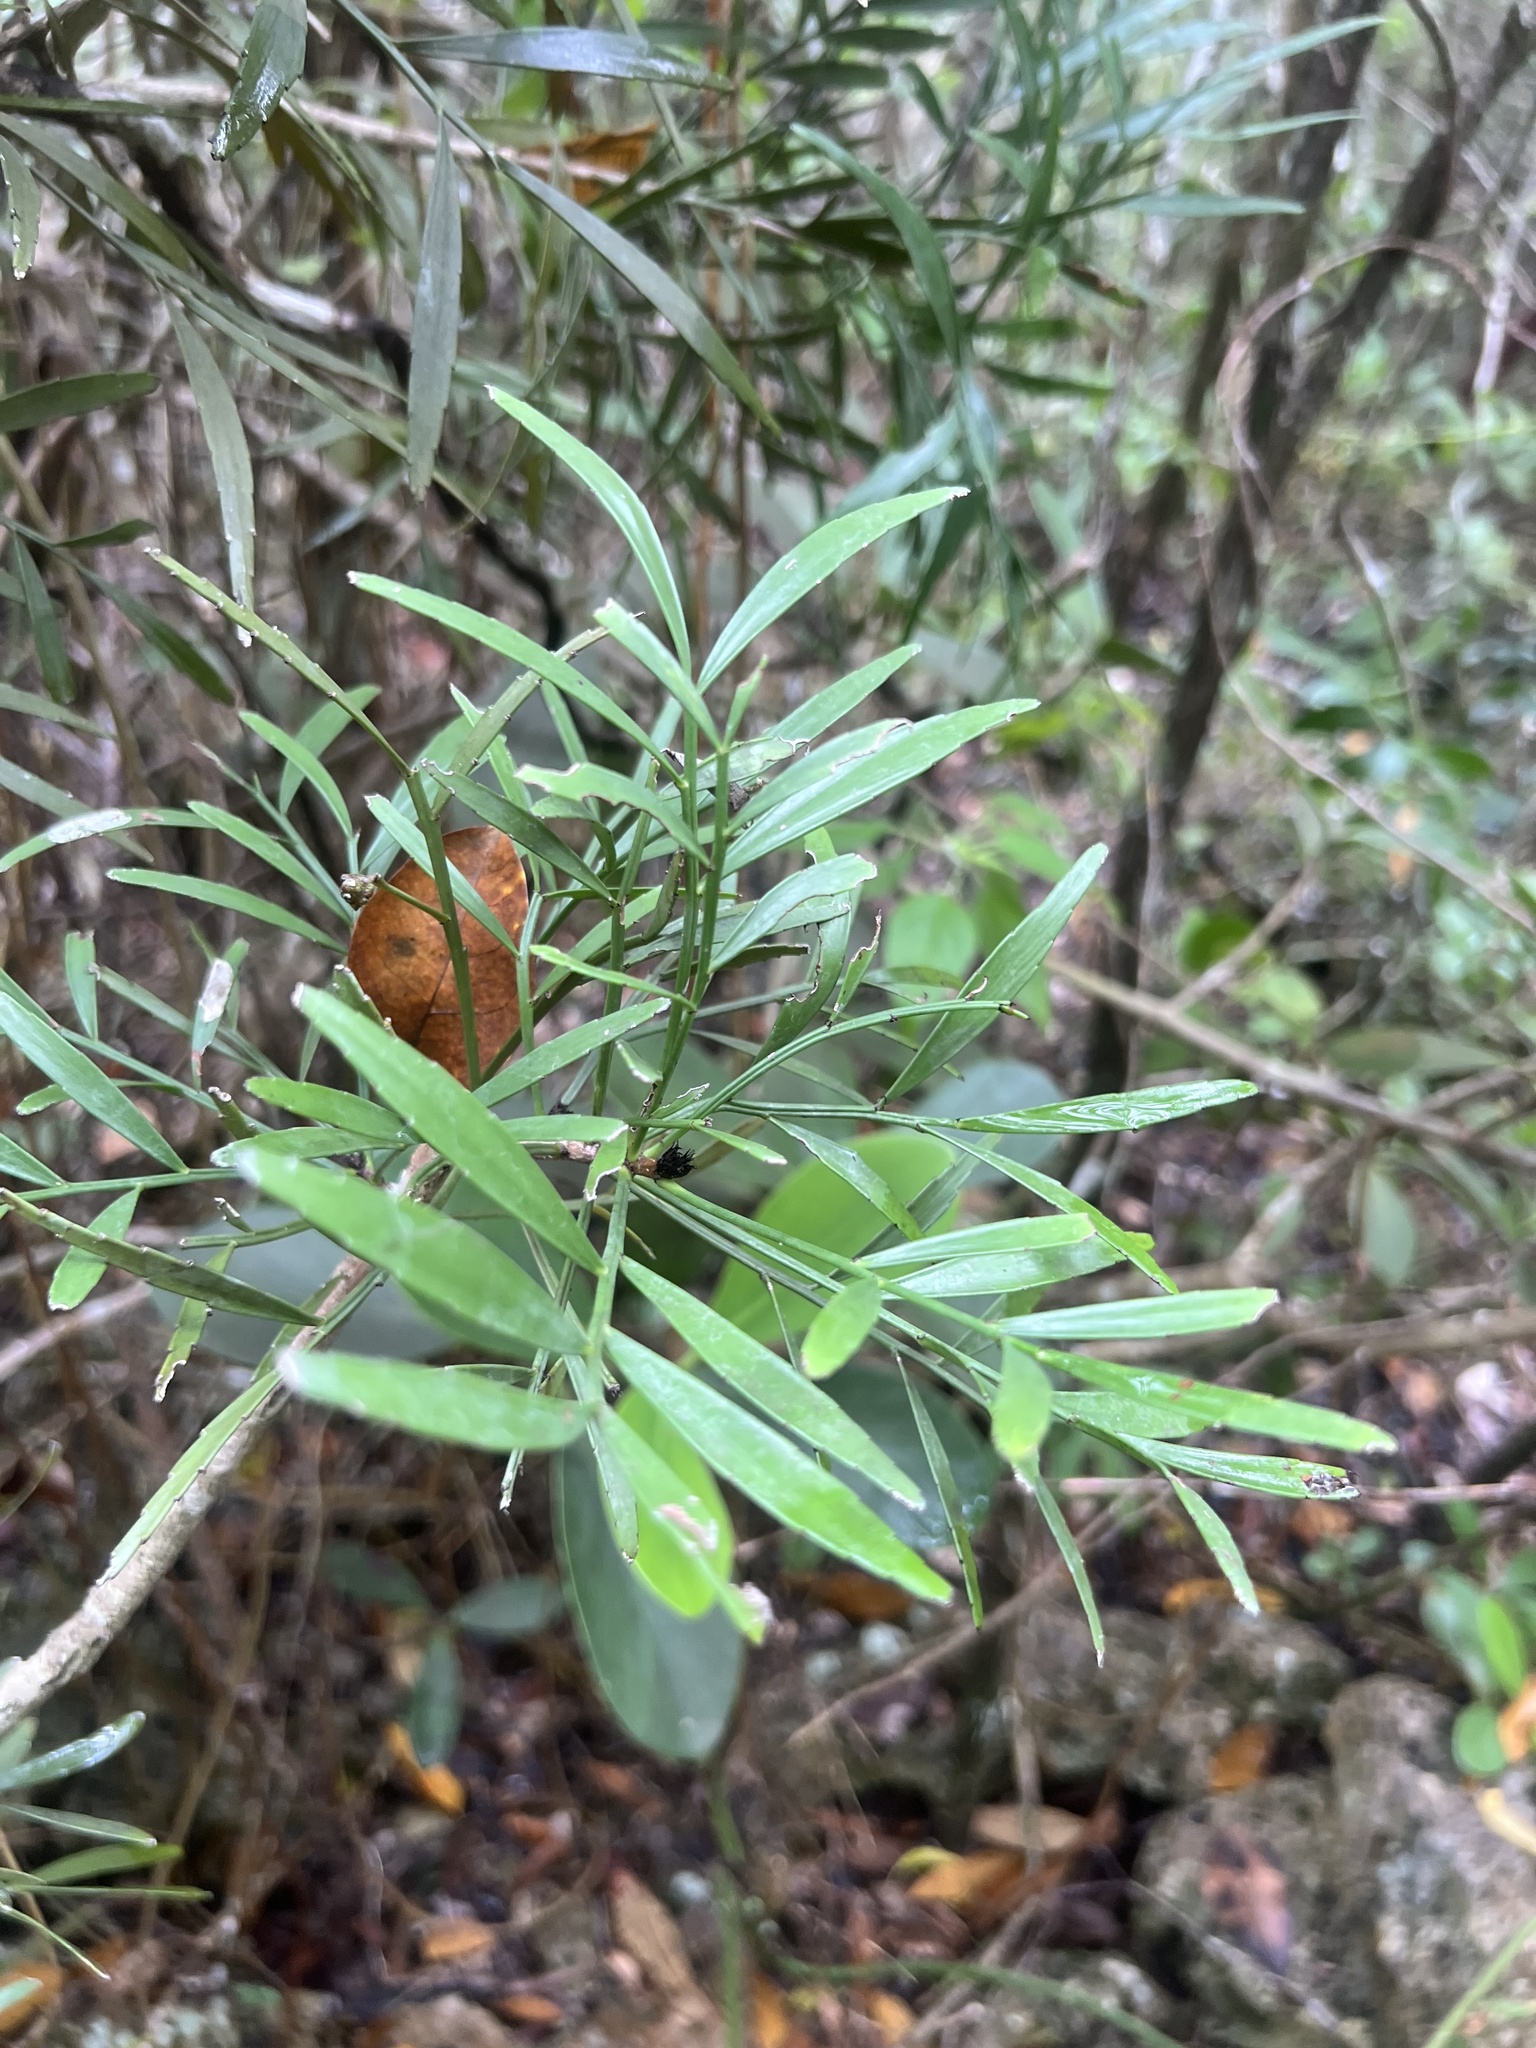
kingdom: Plantae
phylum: Tracheophyta
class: Magnoliopsida
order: Malpighiales
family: Phyllanthaceae
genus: Phyllanthus
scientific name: Phyllanthus angustifolius
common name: Foliage flower
